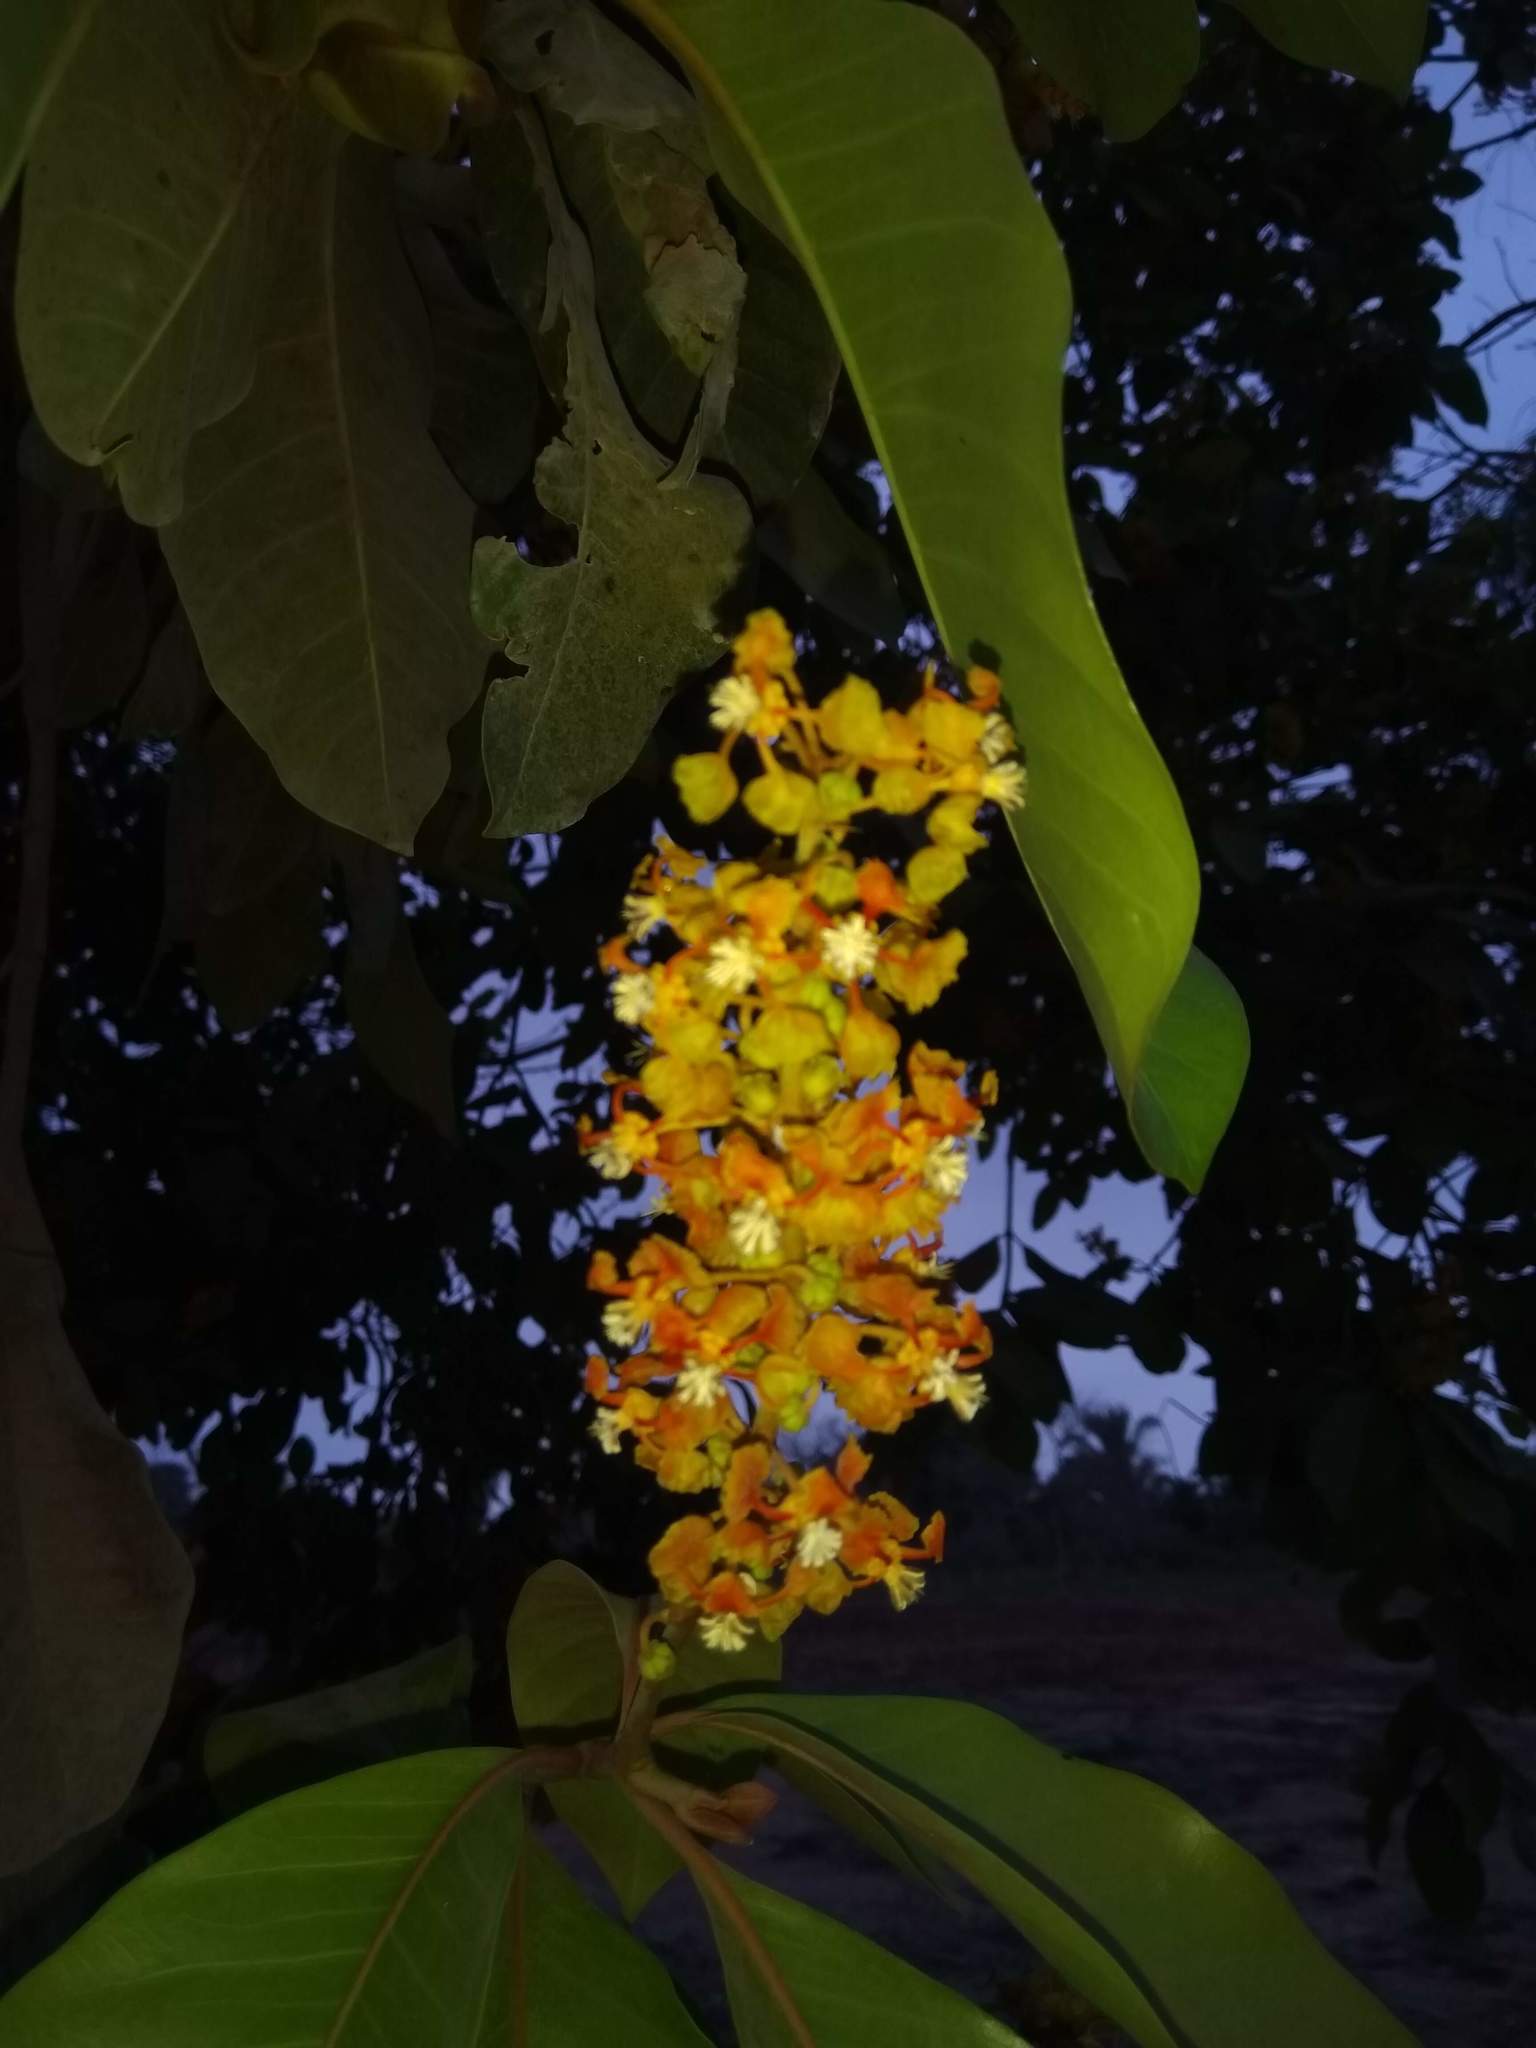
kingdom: Plantae
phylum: Tracheophyta
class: Magnoliopsida
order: Malpighiales
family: Malpighiaceae
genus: Byrsonima
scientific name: Byrsonima crassifolia
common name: Golden spoon
